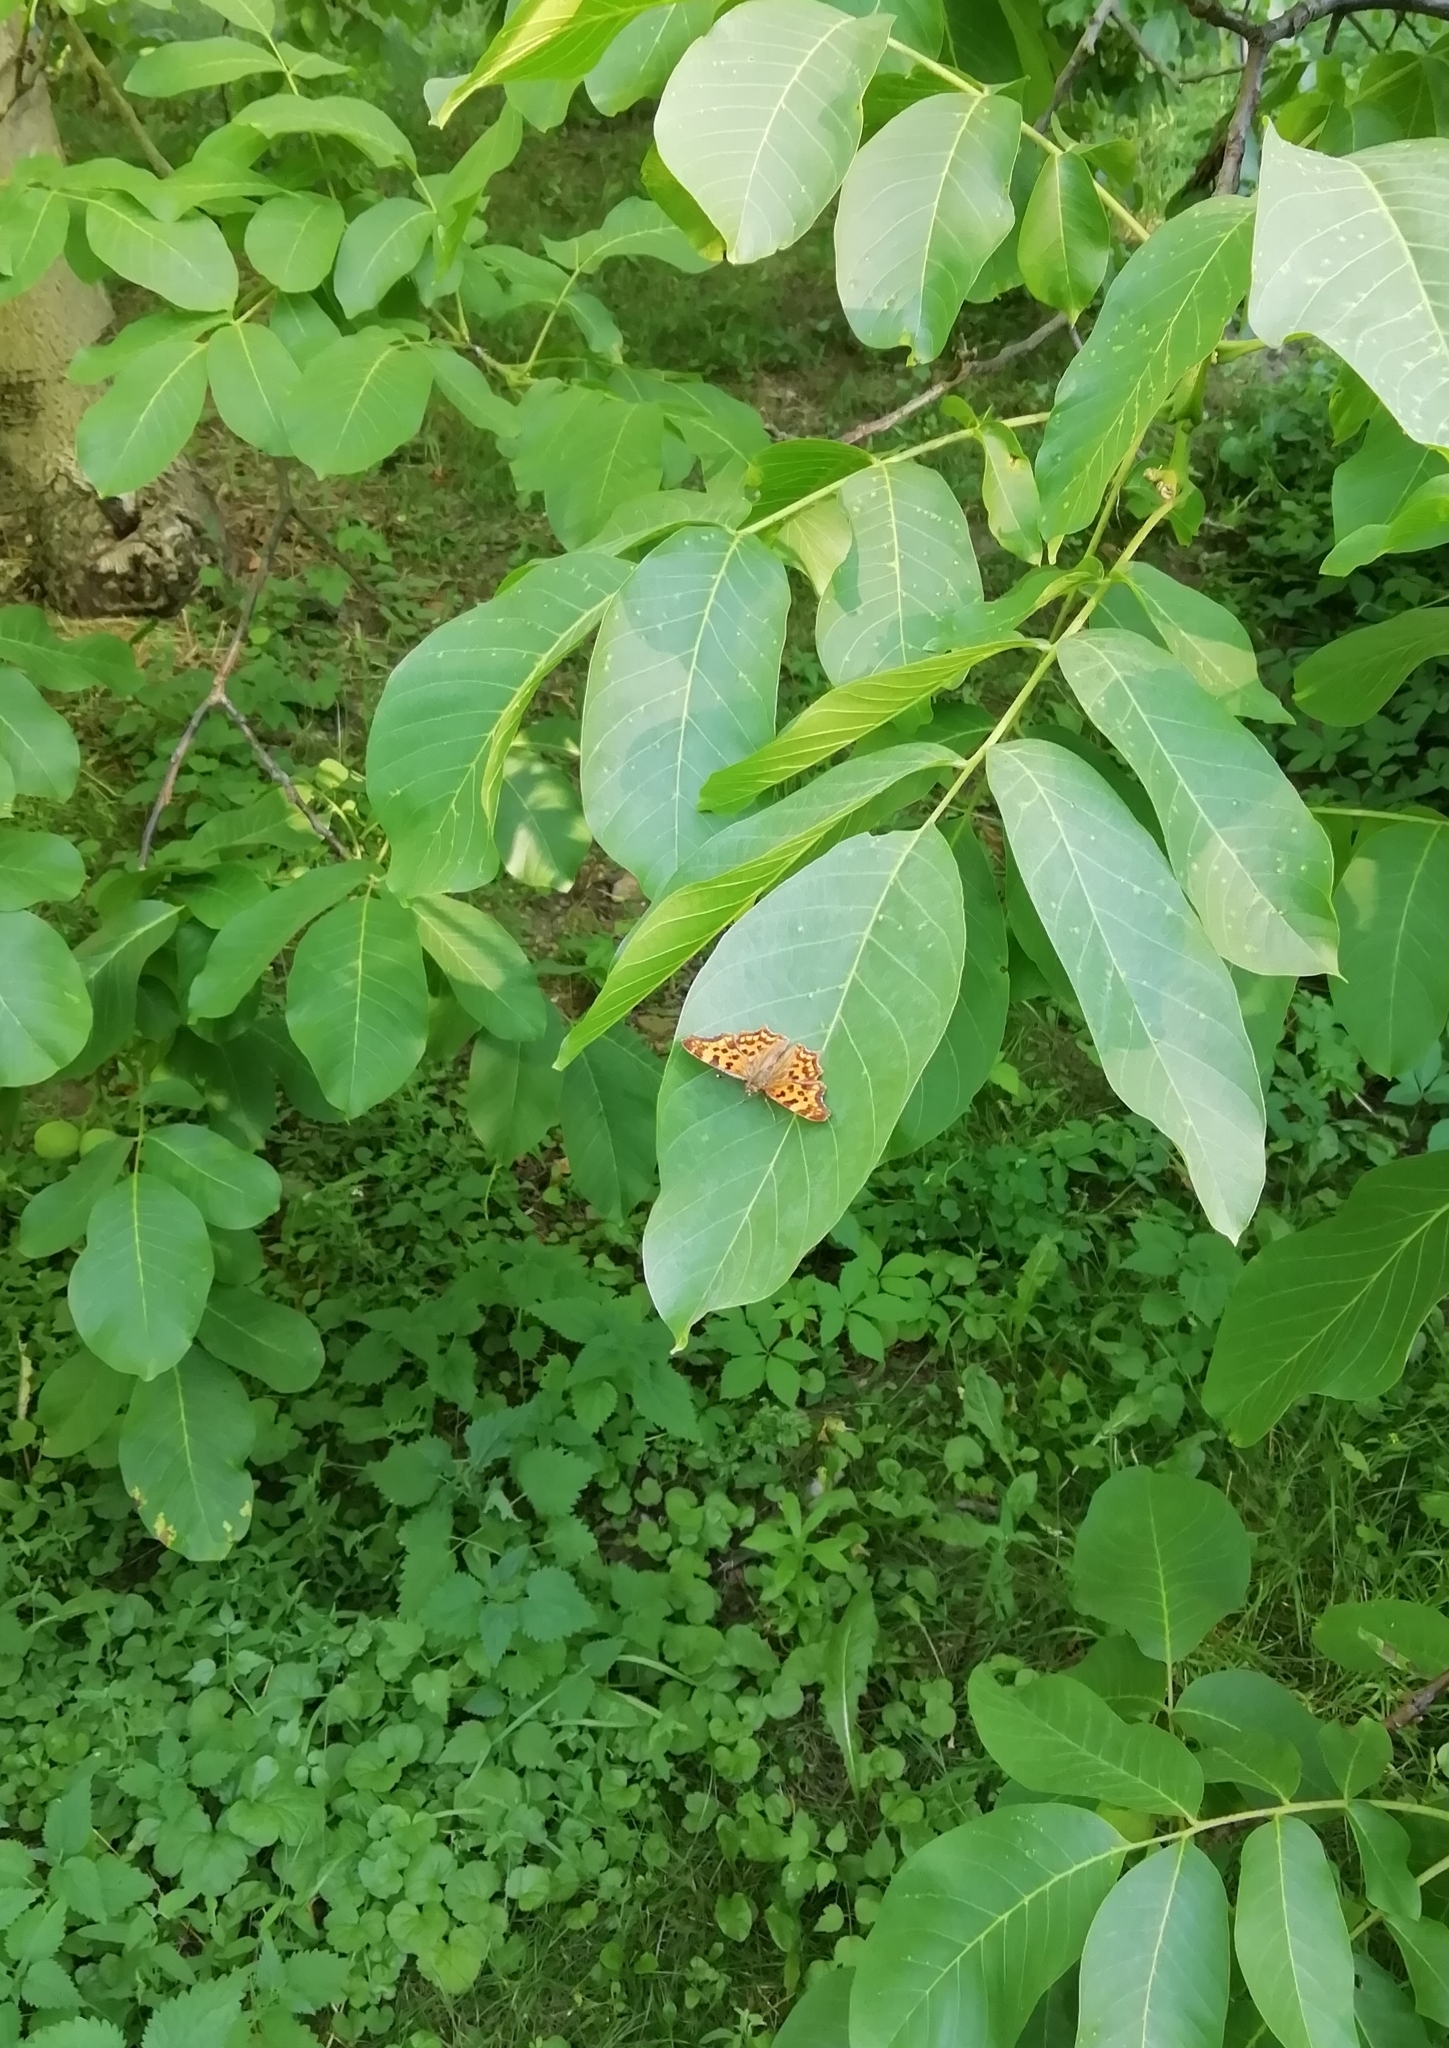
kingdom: Animalia
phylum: Arthropoda
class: Insecta
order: Lepidoptera
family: Nymphalidae
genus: Polygonia
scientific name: Polygonia c-album
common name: Comma
